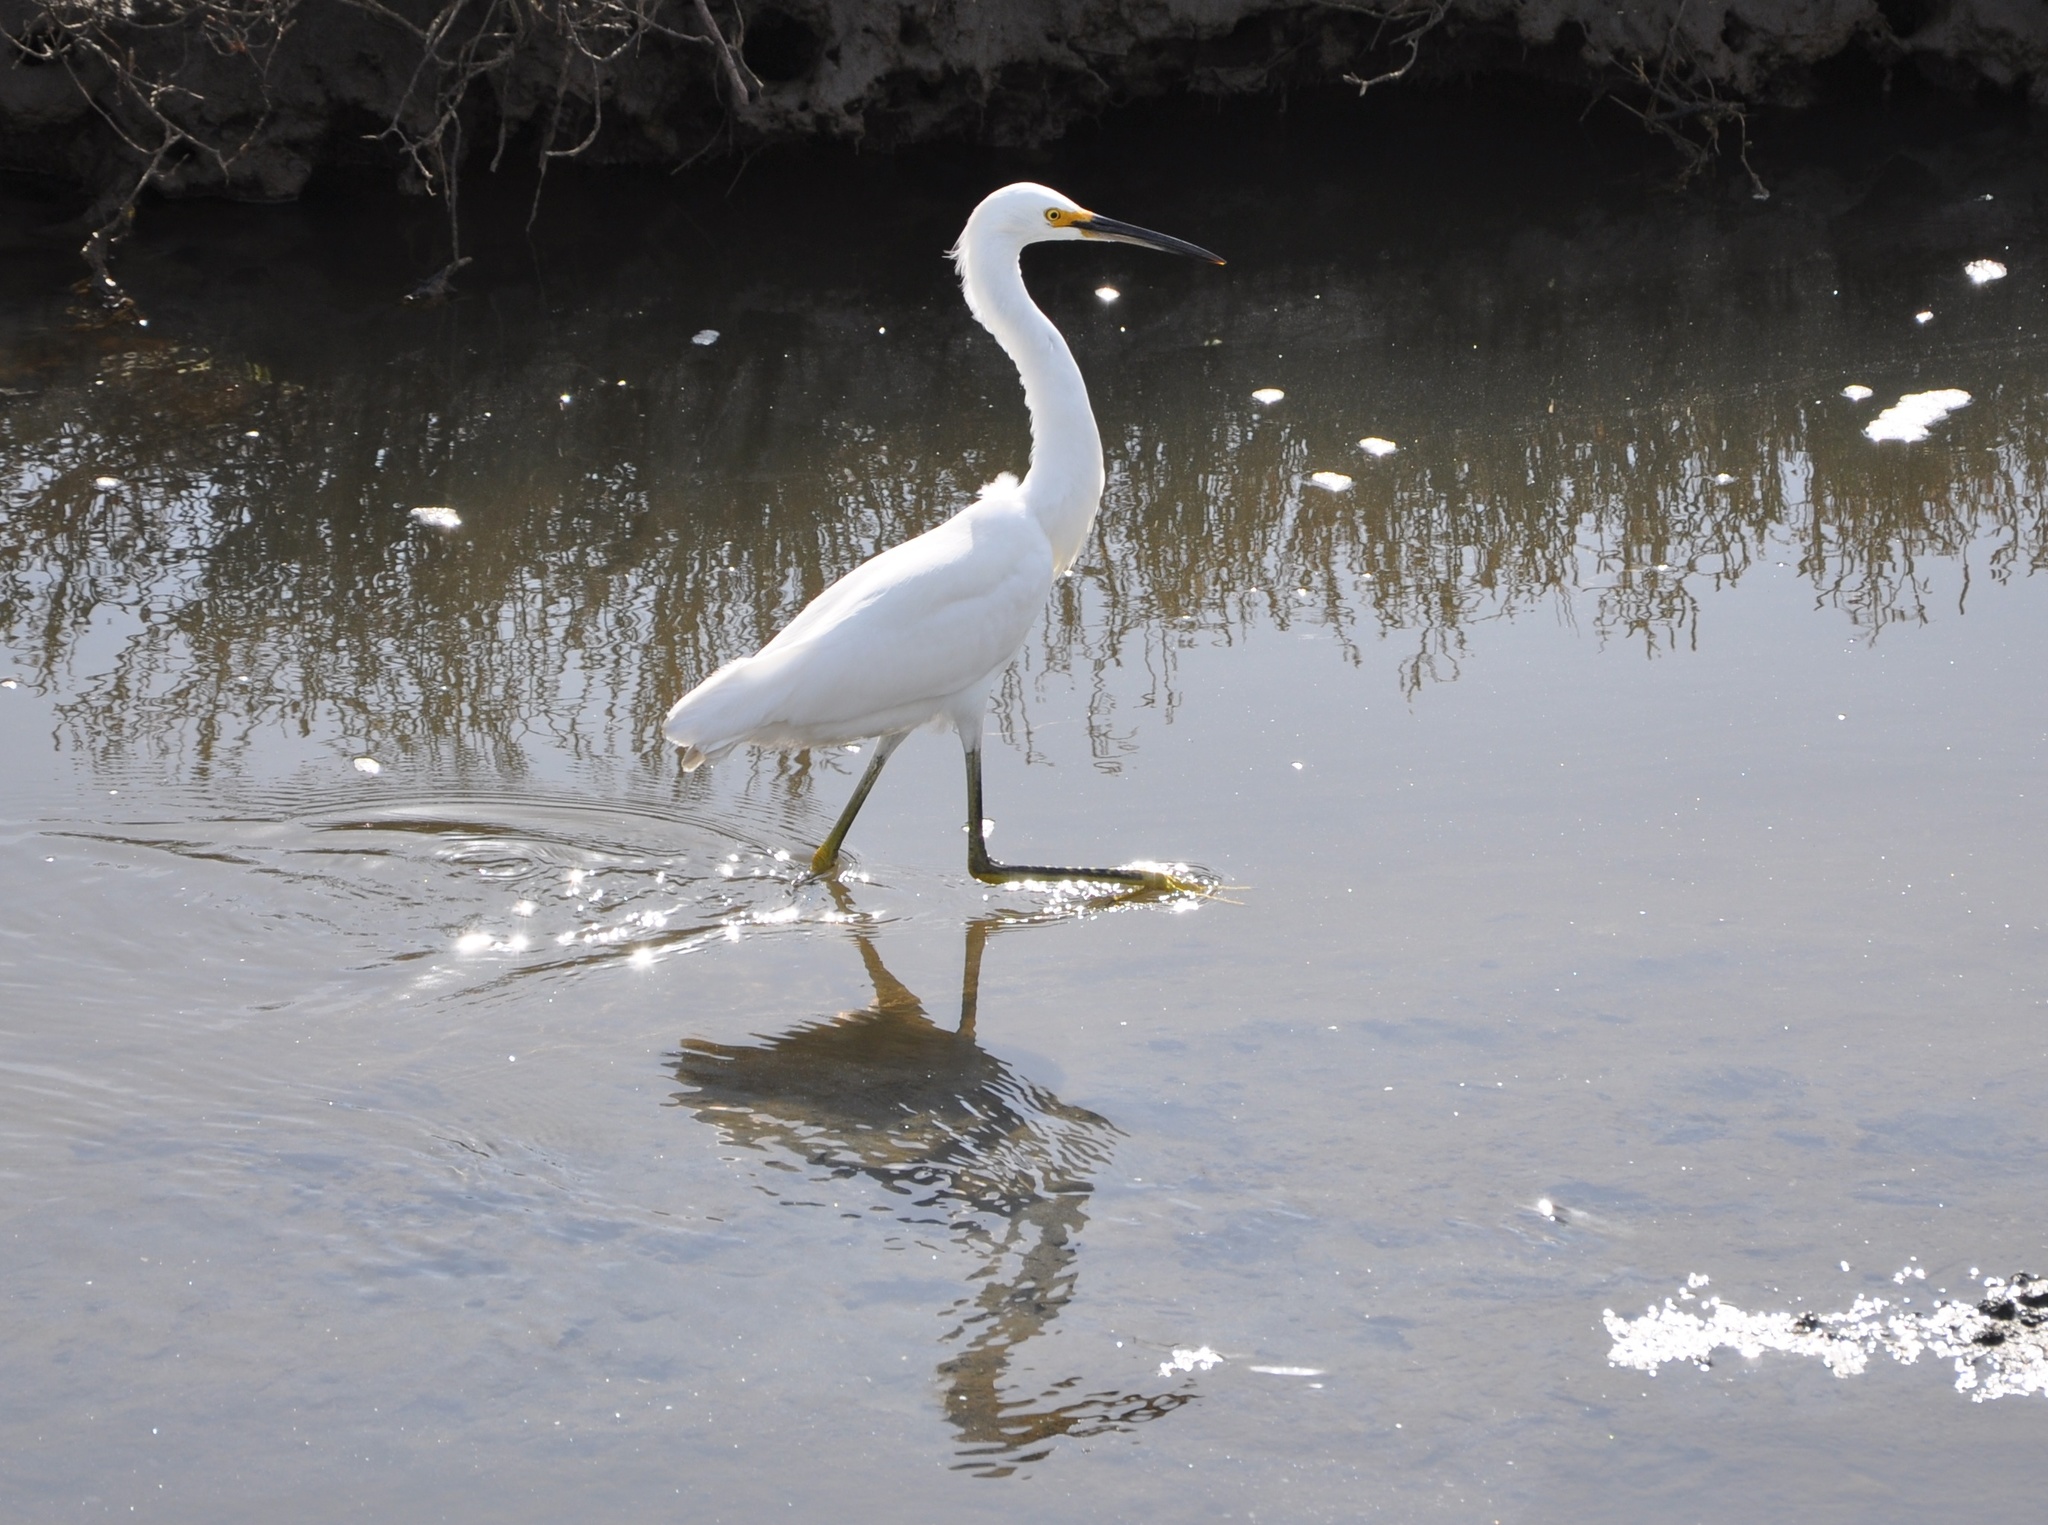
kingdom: Animalia
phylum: Chordata
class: Aves
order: Pelecaniformes
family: Ardeidae
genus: Egretta
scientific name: Egretta thula
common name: Snowy egret
